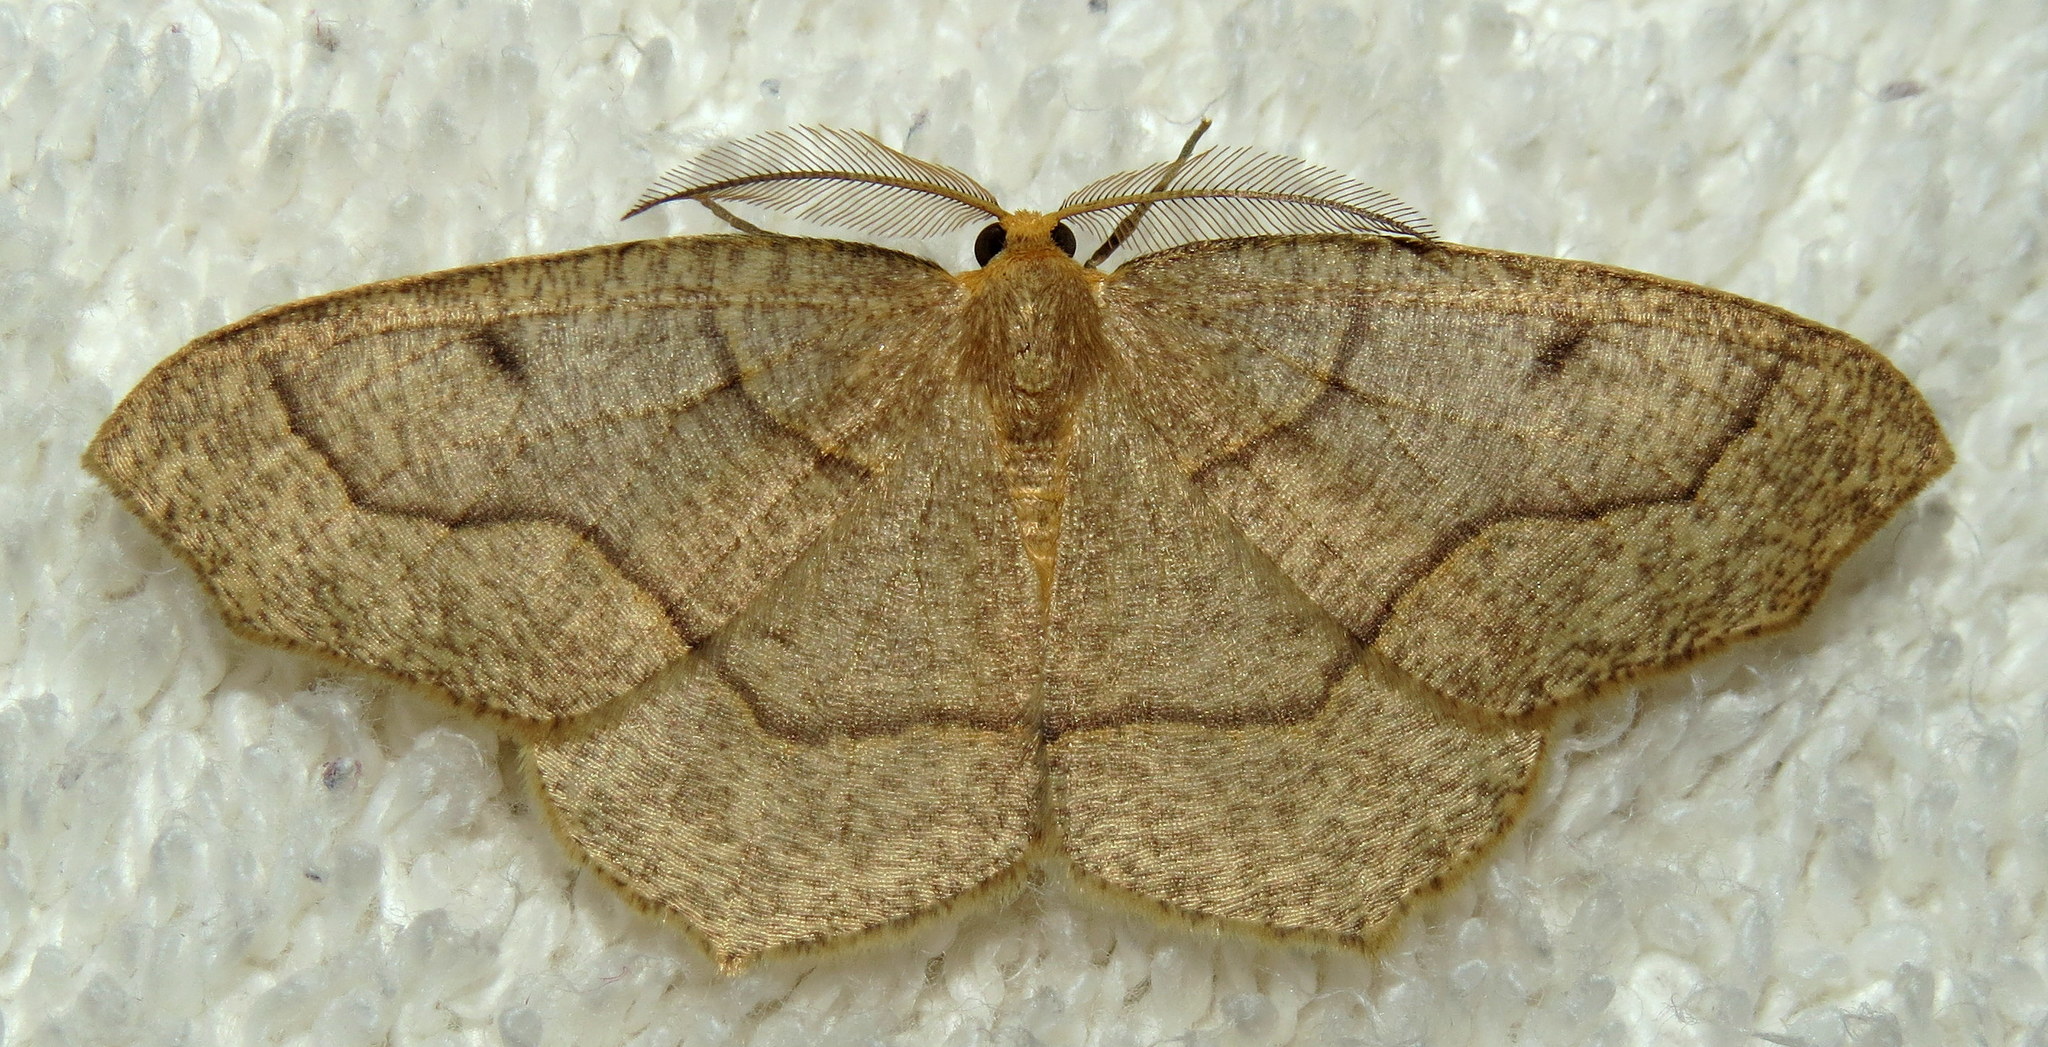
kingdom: Animalia
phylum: Arthropoda
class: Insecta
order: Lepidoptera
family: Geometridae
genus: Lambdina
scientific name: Lambdina fiscellaria
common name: Hemlock looper
